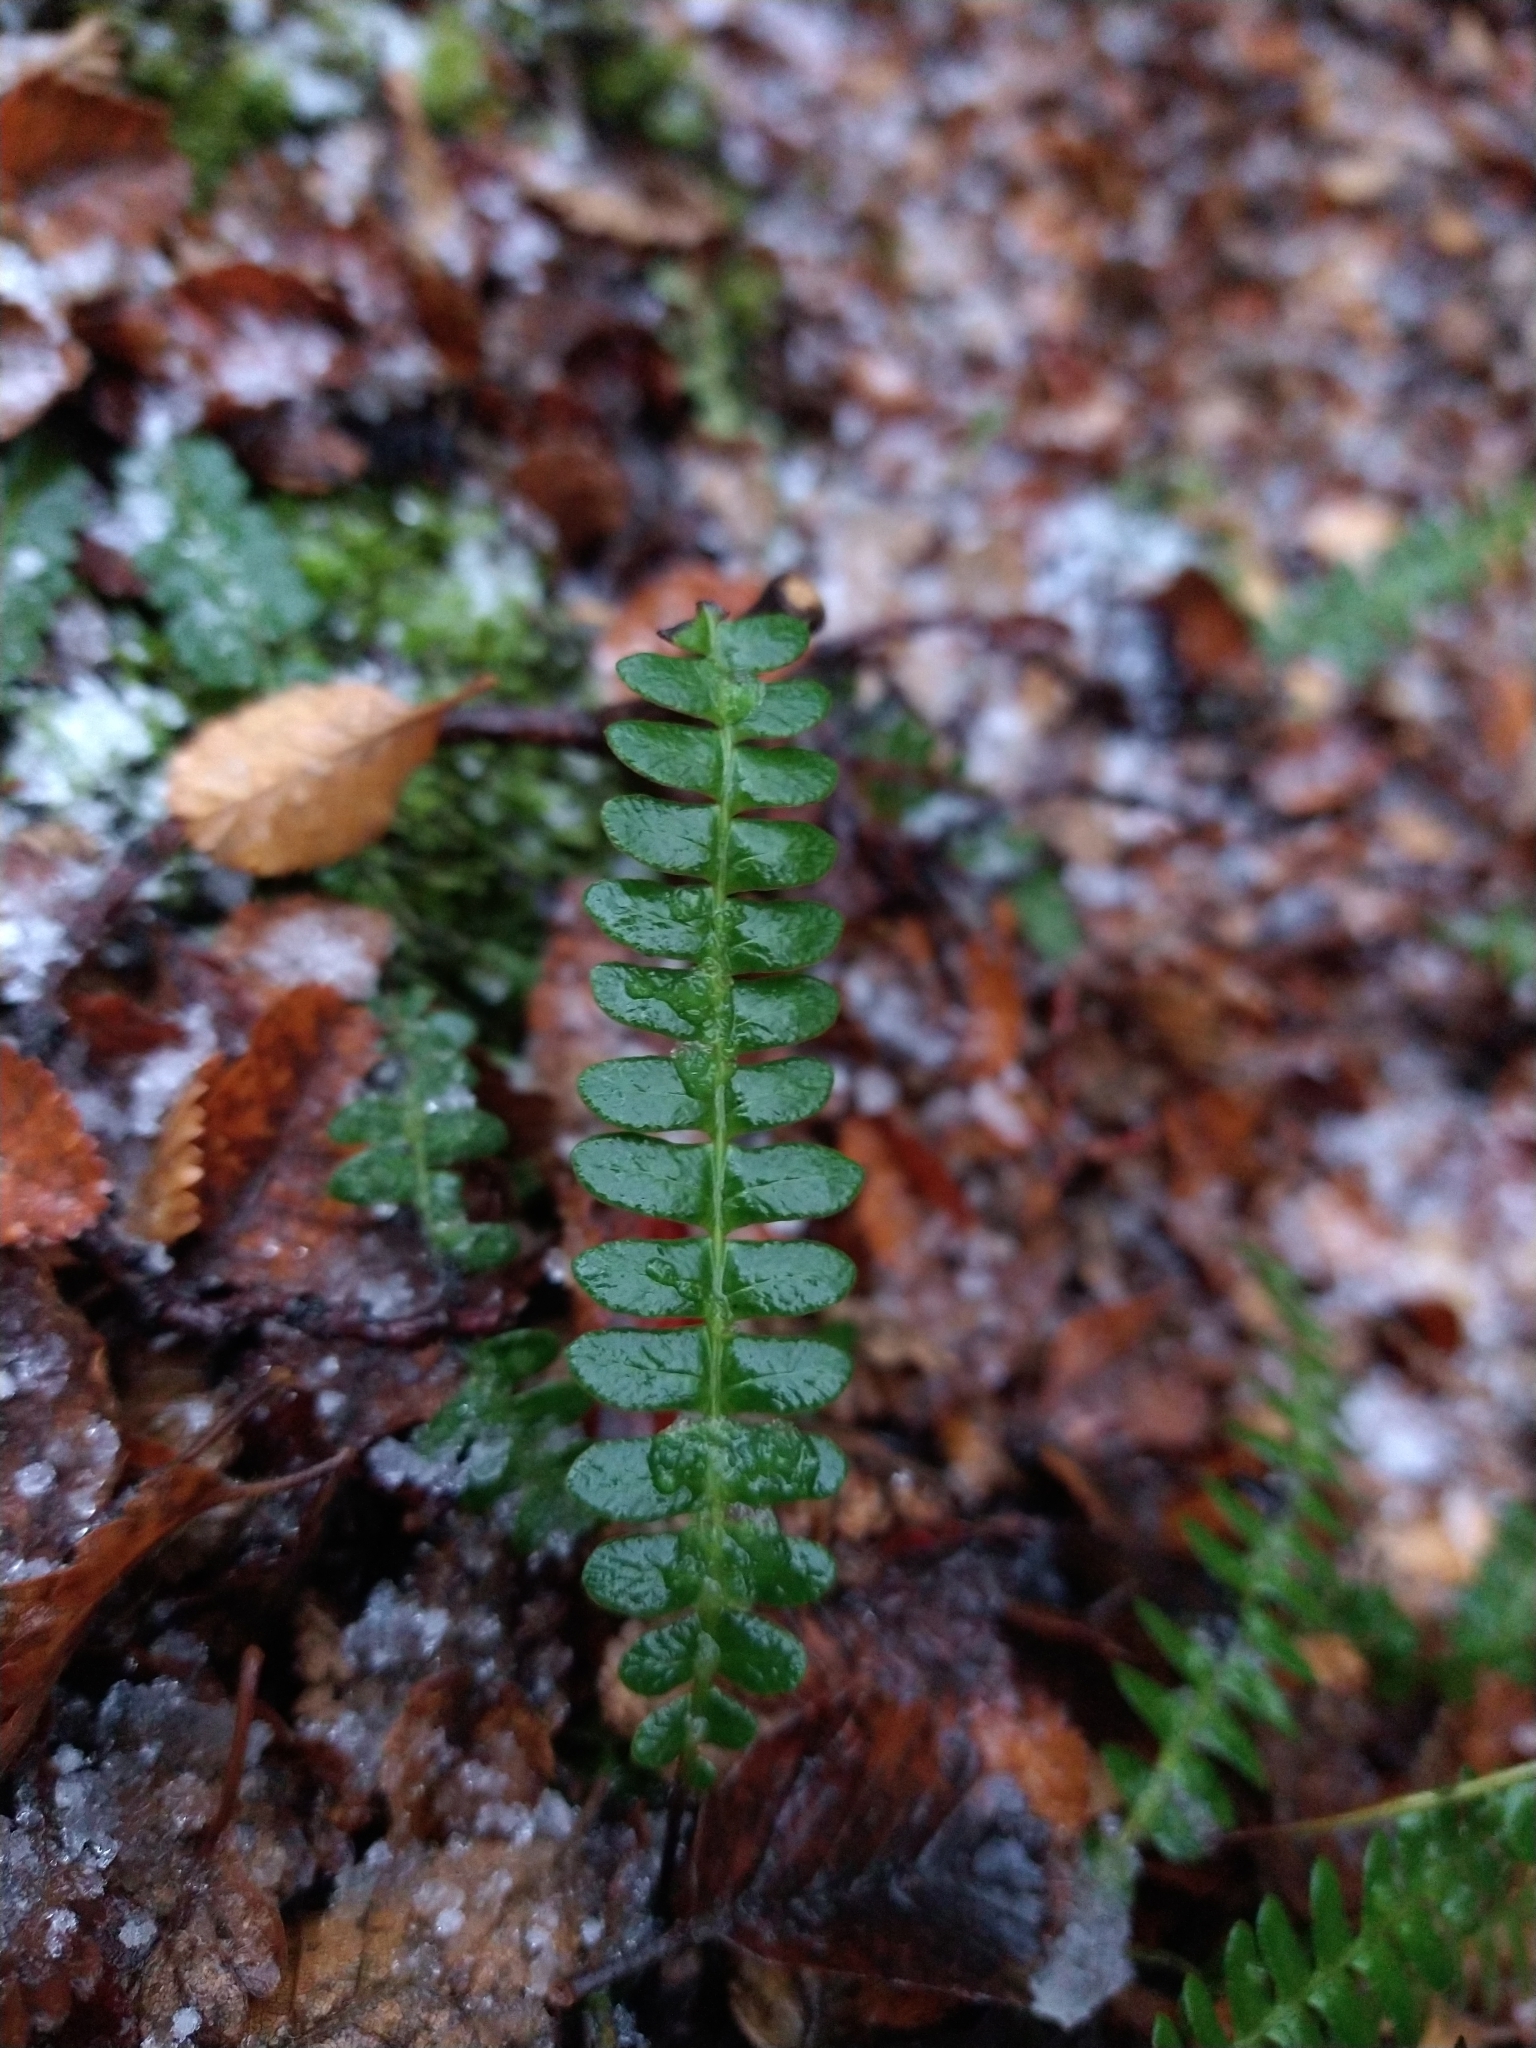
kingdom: Plantae
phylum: Tracheophyta
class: Polypodiopsida
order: Polypodiales
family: Blechnaceae
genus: Austroblechnum
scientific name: Austroblechnum penna-marina
